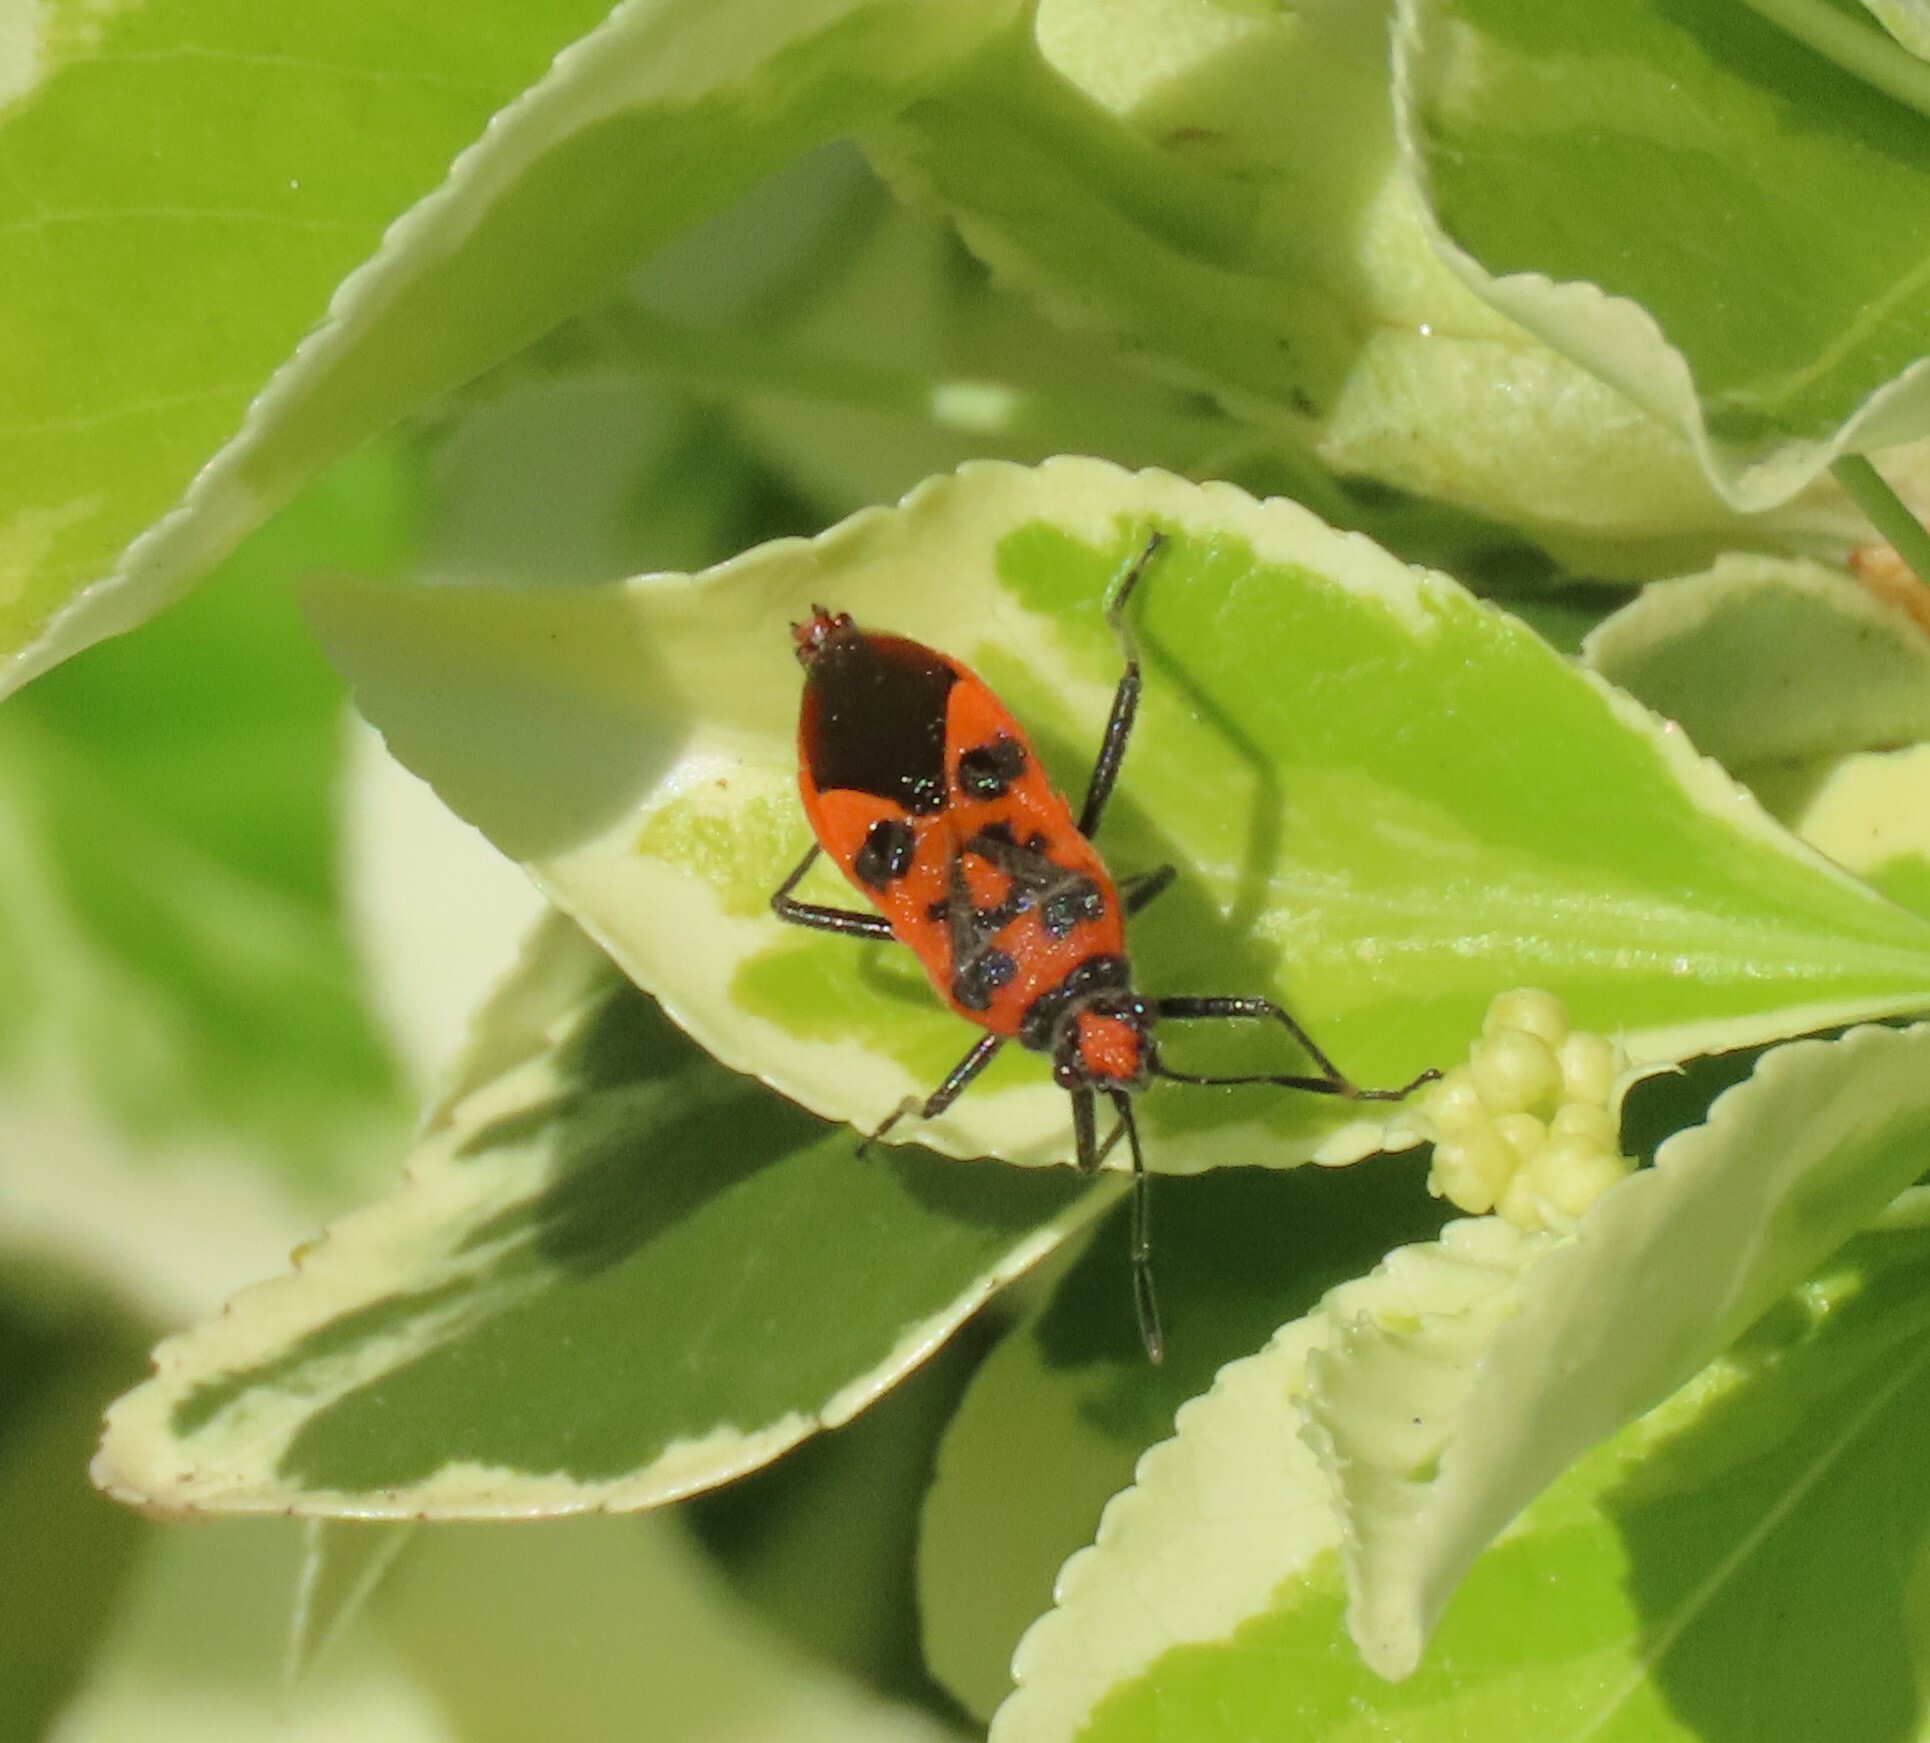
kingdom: Animalia
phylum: Arthropoda
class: Insecta
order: Hemiptera
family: Rhopalidae
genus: Corizus
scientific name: Corizus hyoscyami
